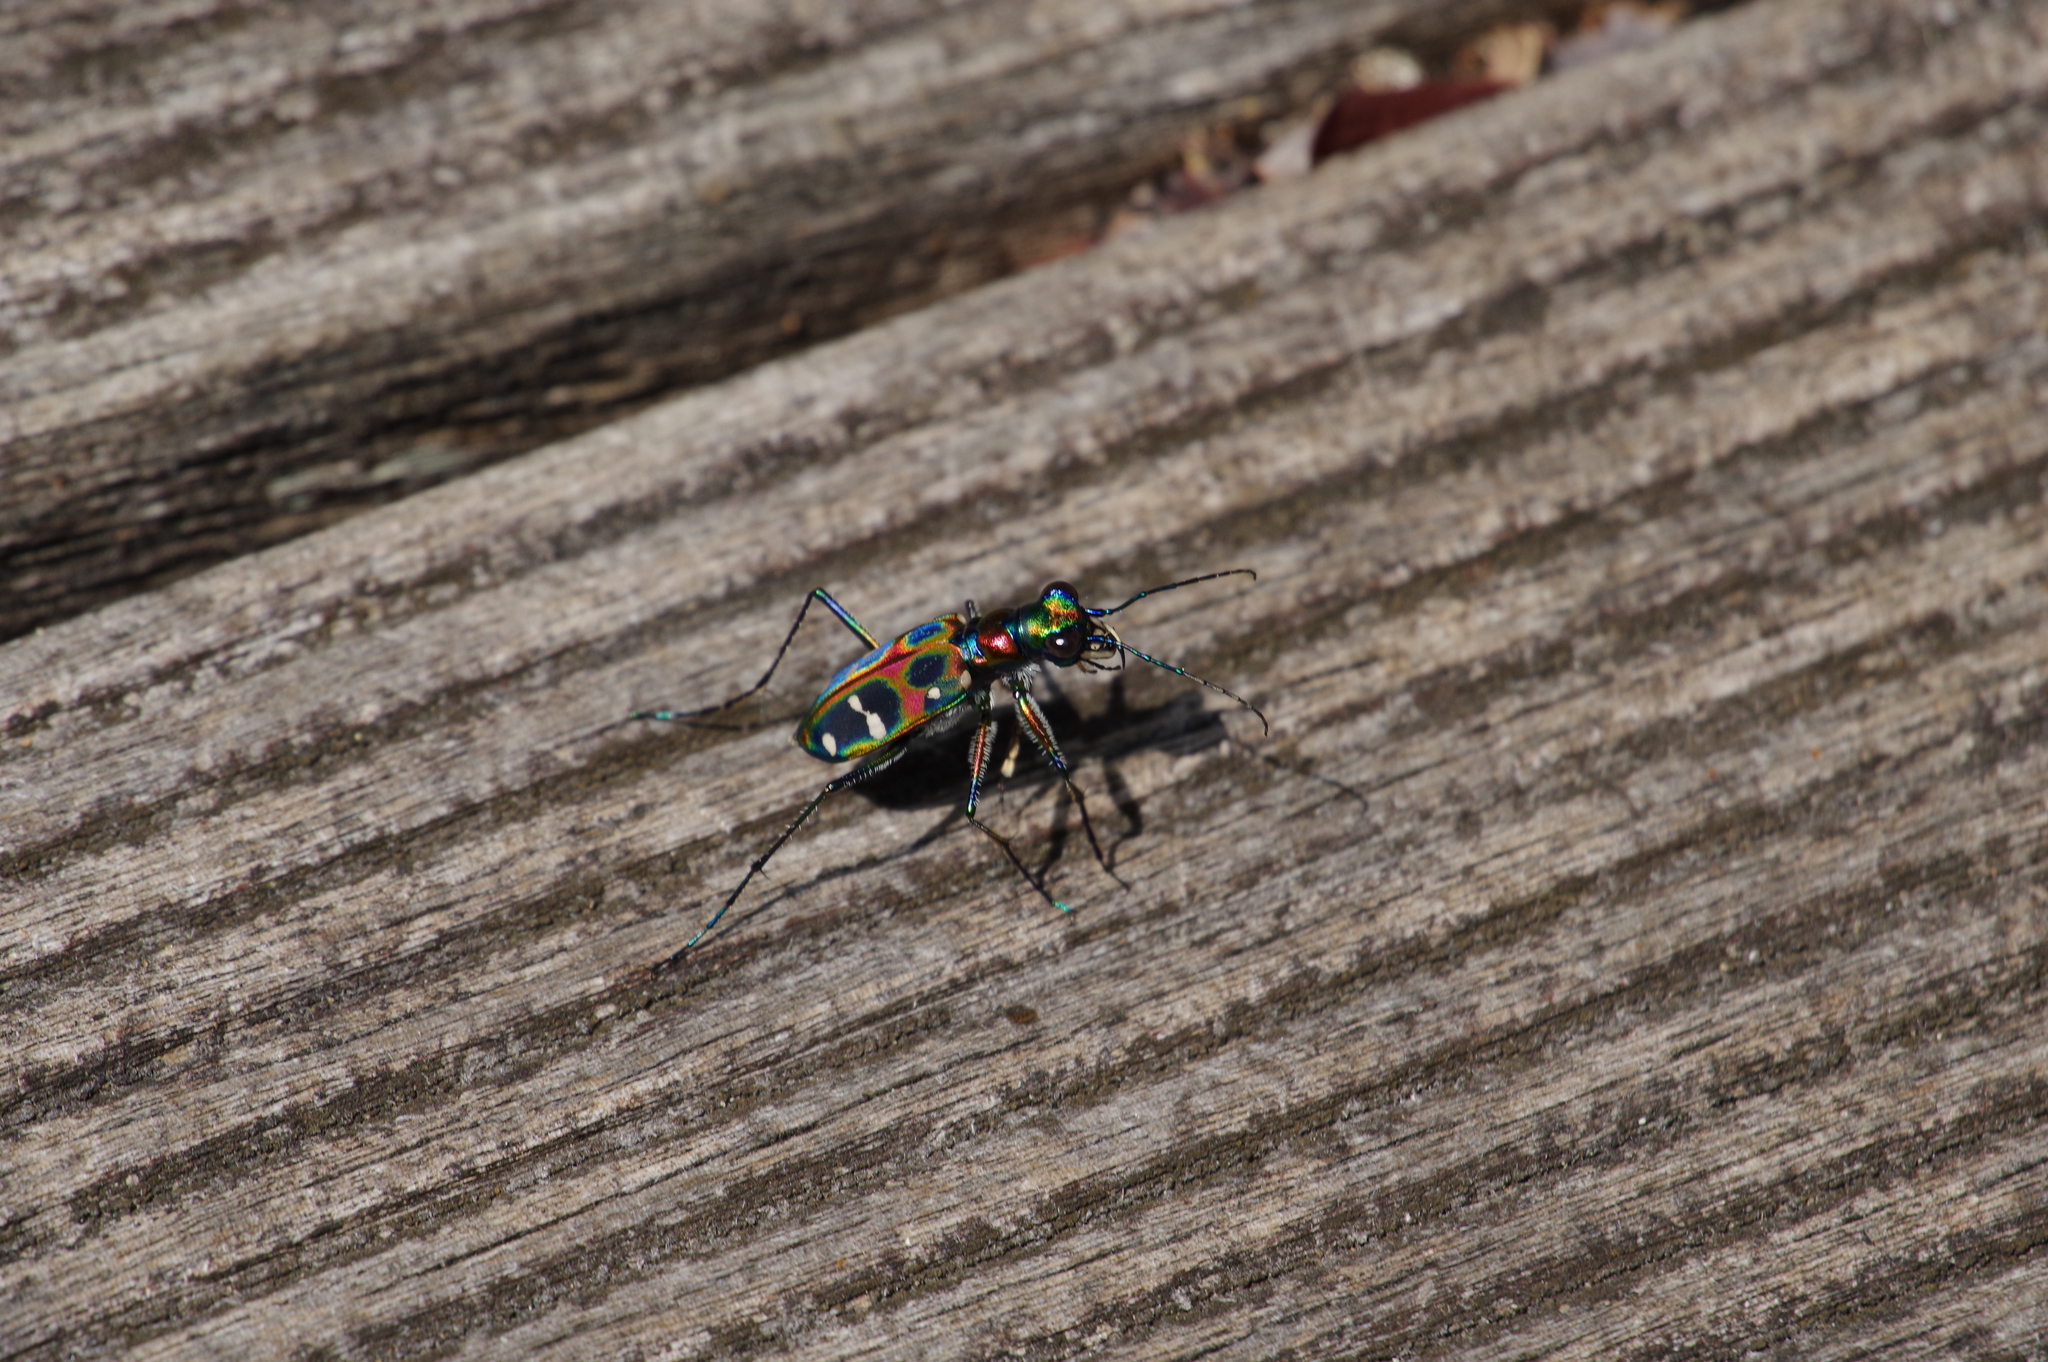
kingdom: Animalia
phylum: Arthropoda
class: Insecta
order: Coleoptera
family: Carabidae
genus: Cicindela
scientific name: Cicindela chinensis
